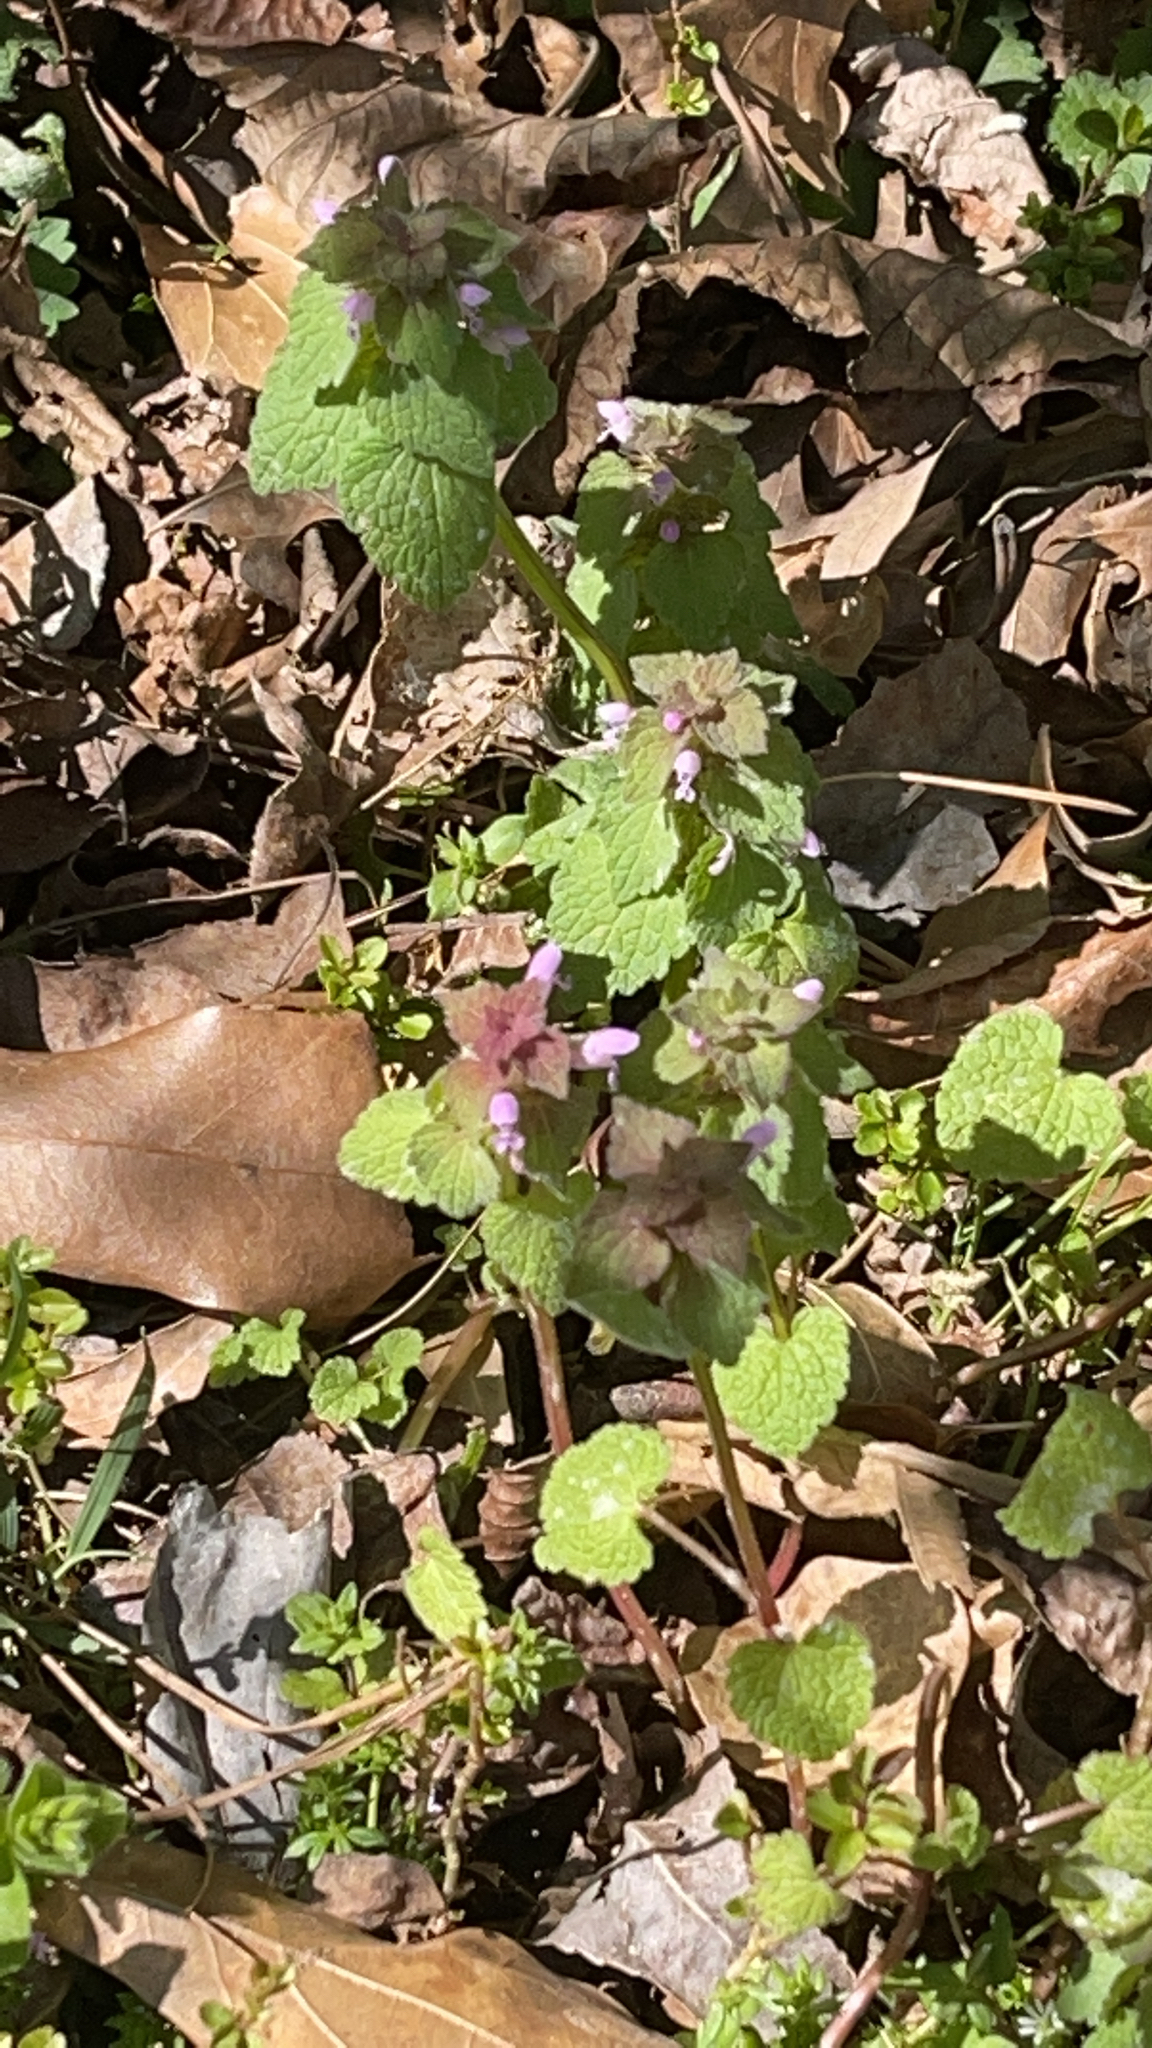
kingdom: Plantae
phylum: Tracheophyta
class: Magnoliopsida
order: Lamiales
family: Lamiaceae
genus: Lamium
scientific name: Lamium purpureum
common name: Red dead-nettle
